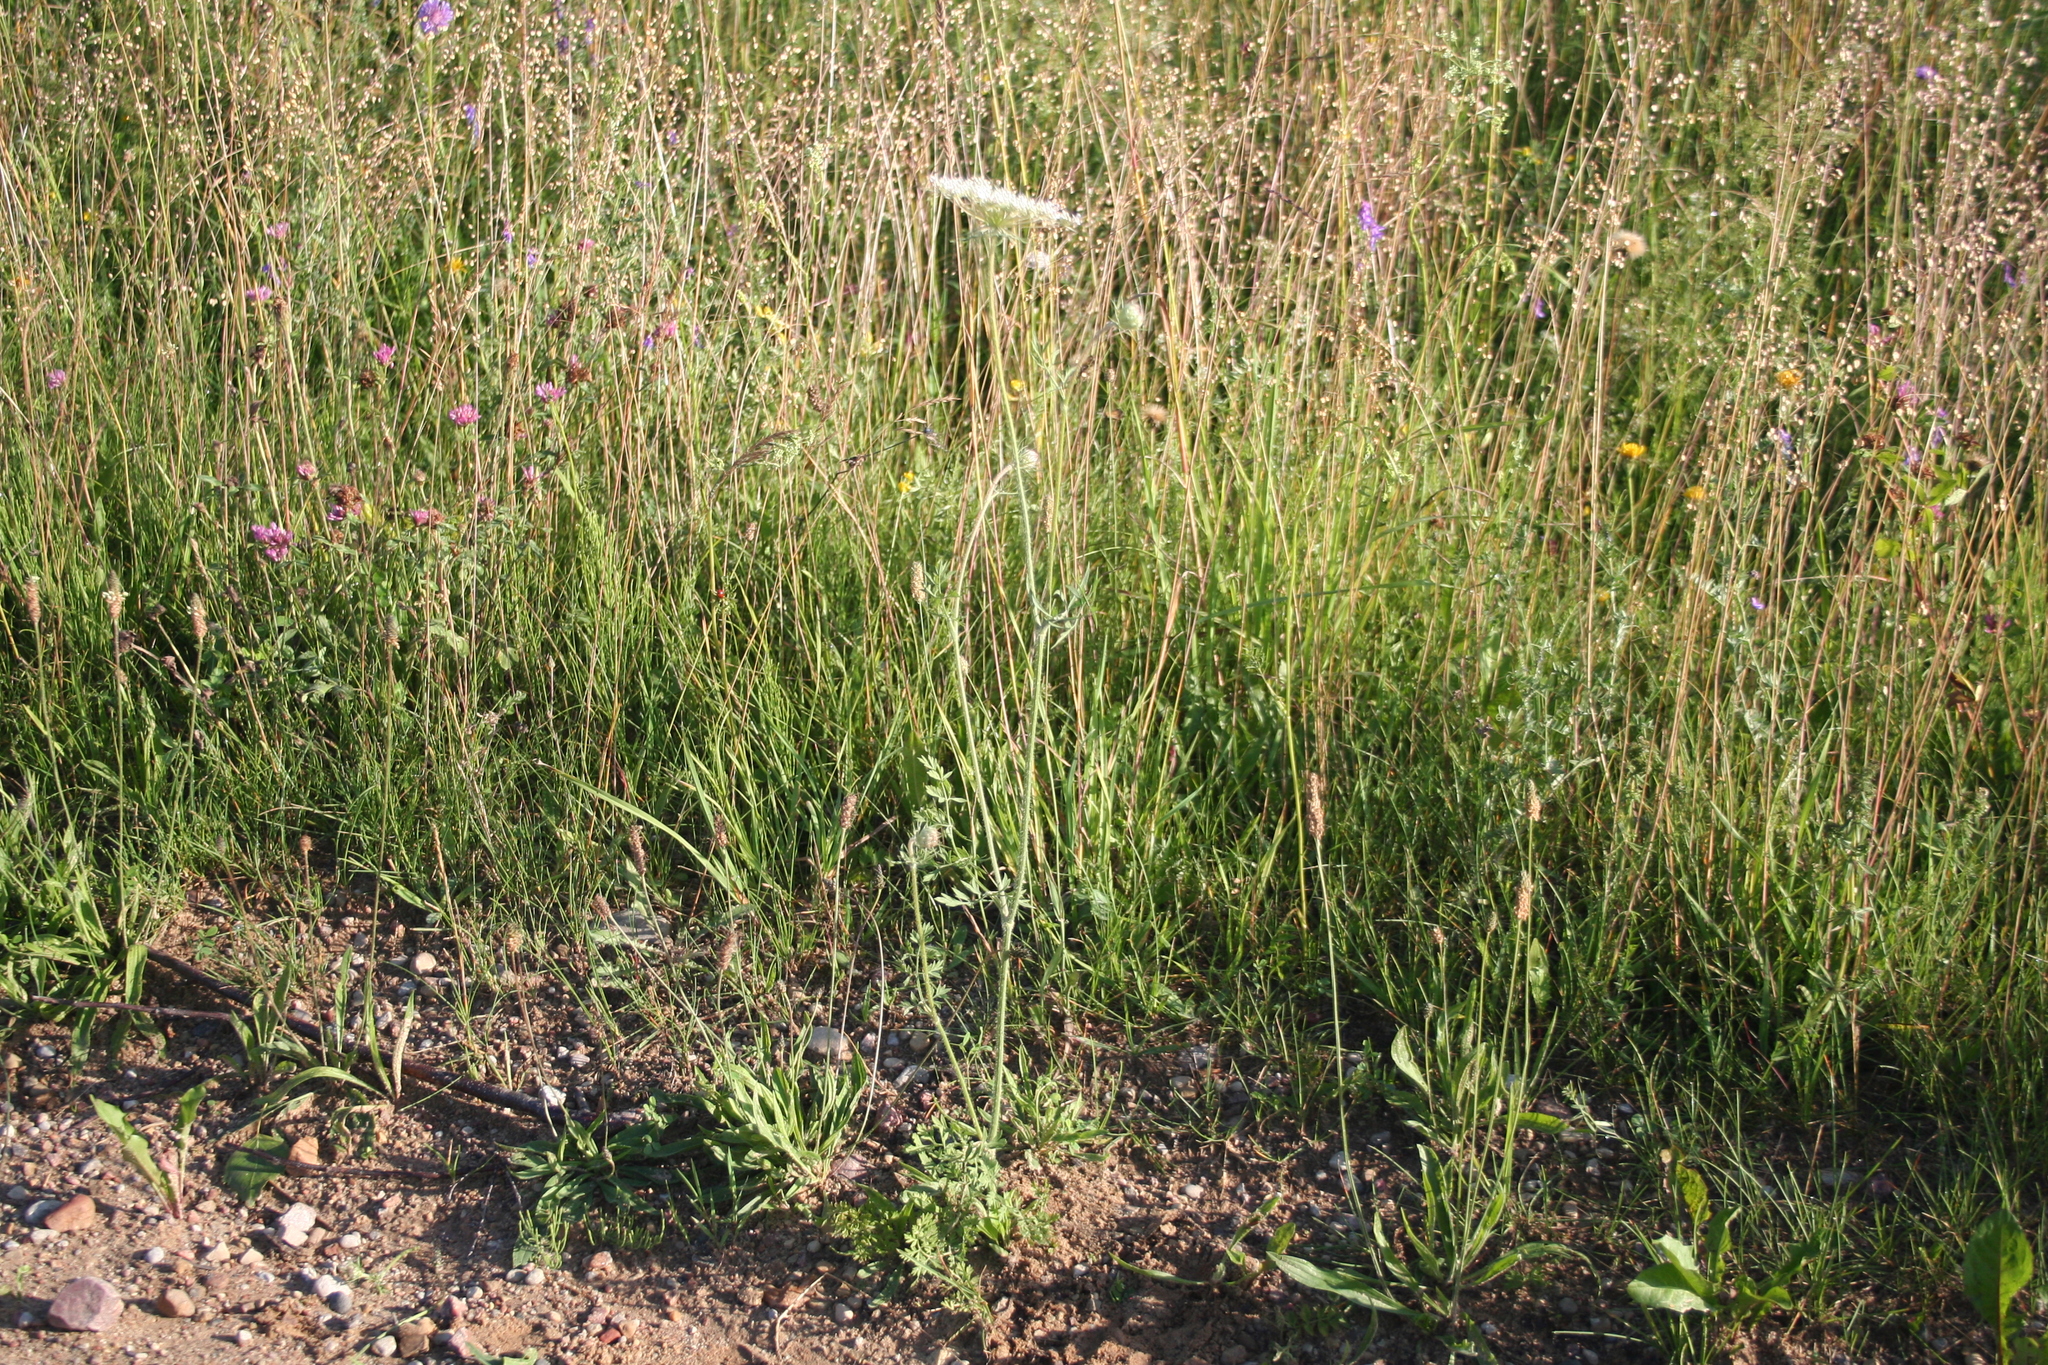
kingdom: Plantae
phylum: Tracheophyta
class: Magnoliopsida
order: Apiales
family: Apiaceae
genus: Daucus
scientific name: Daucus carota
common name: Wild carrot
